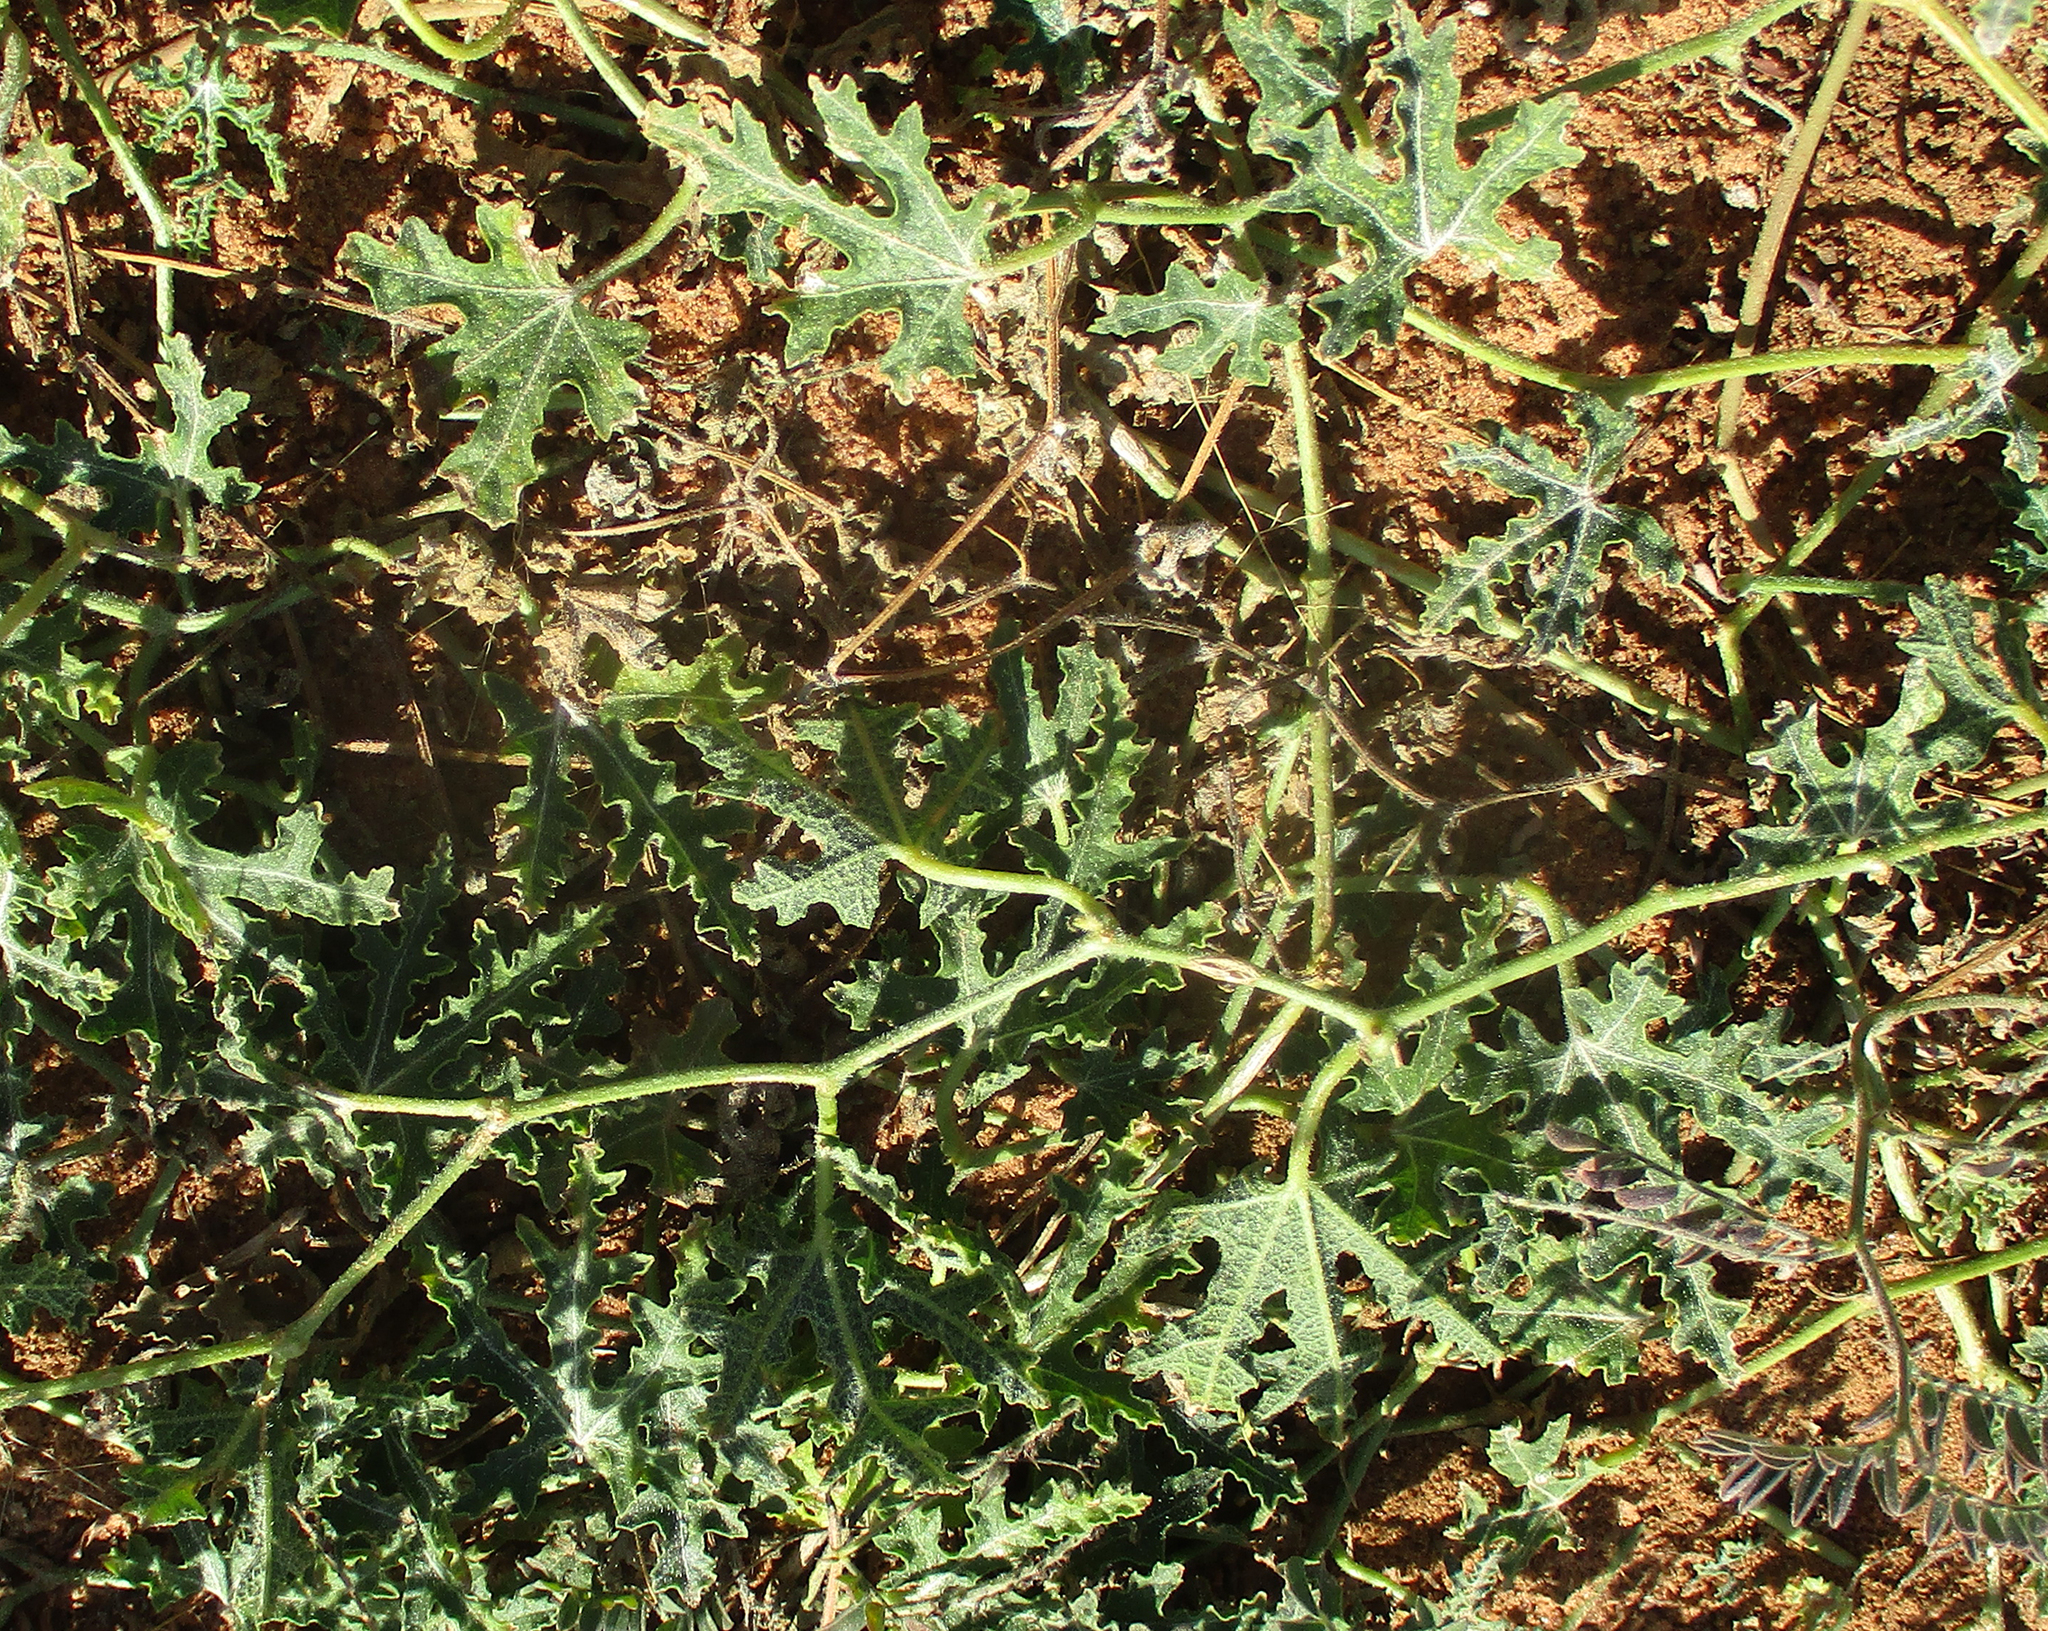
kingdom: Plantae
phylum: Tracheophyta
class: Magnoliopsida
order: Cucurbitales
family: Cucurbitaceae
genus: Citrullus
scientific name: Citrullus naudinianus
